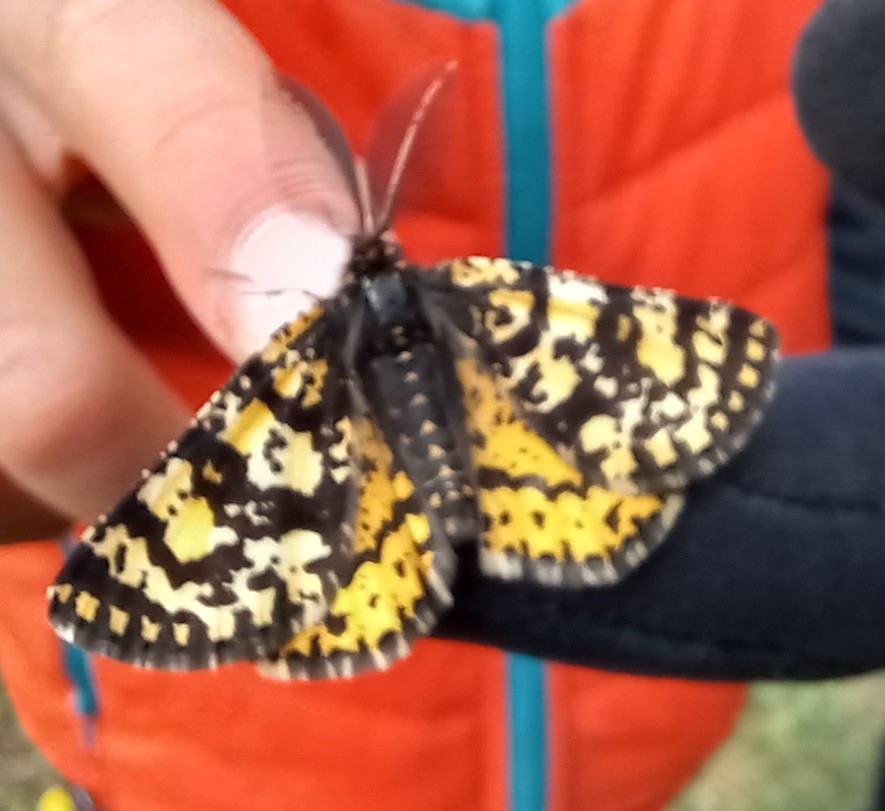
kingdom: Animalia
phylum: Arthropoda
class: Insecta
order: Lepidoptera
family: Geometridae
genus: Eurranthis
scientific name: Eurranthis plummistaria
